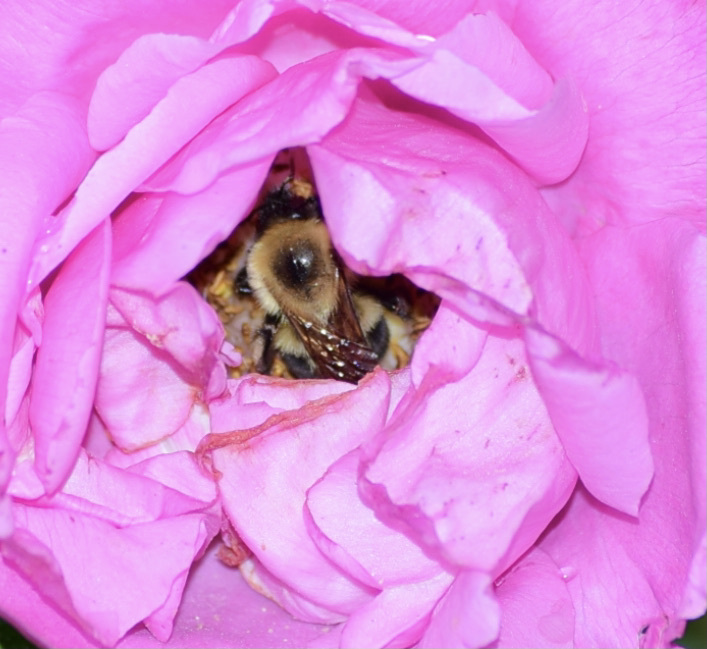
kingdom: Animalia
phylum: Arthropoda
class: Insecta
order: Hymenoptera
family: Apidae
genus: Bombus
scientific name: Bombus bimaculatus
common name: Two-spotted bumble bee
